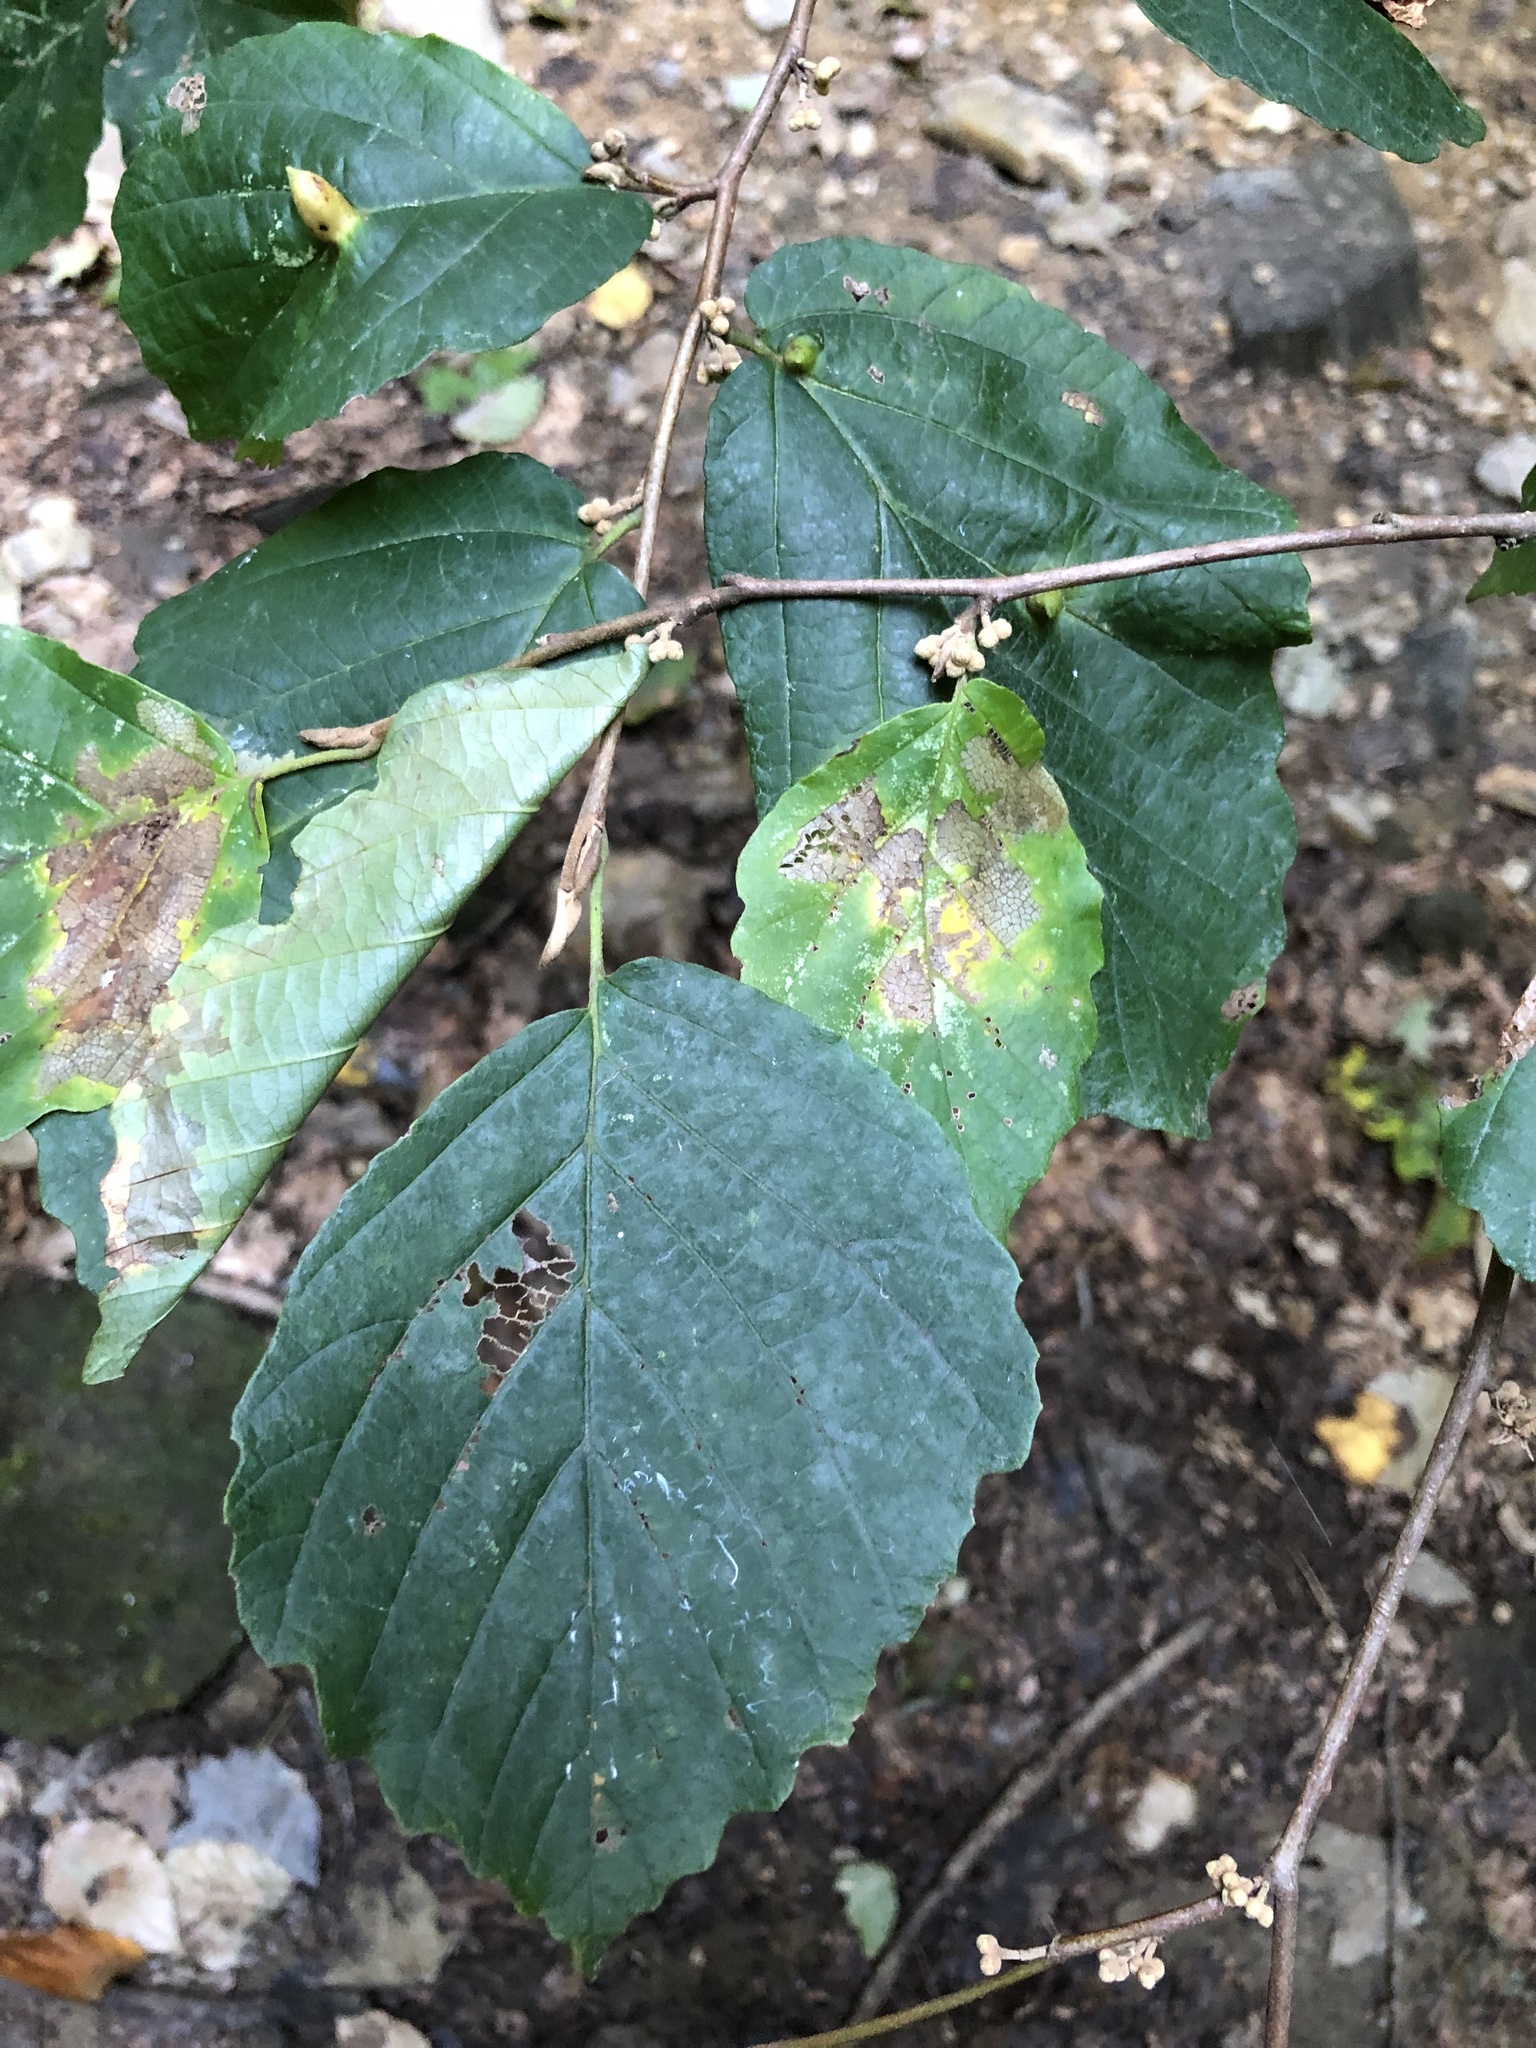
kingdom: Plantae
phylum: Tracheophyta
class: Magnoliopsida
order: Saxifragales
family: Hamamelidaceae
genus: Hamamelis
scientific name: Hamamelis virginiana
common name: Witch-hazel
